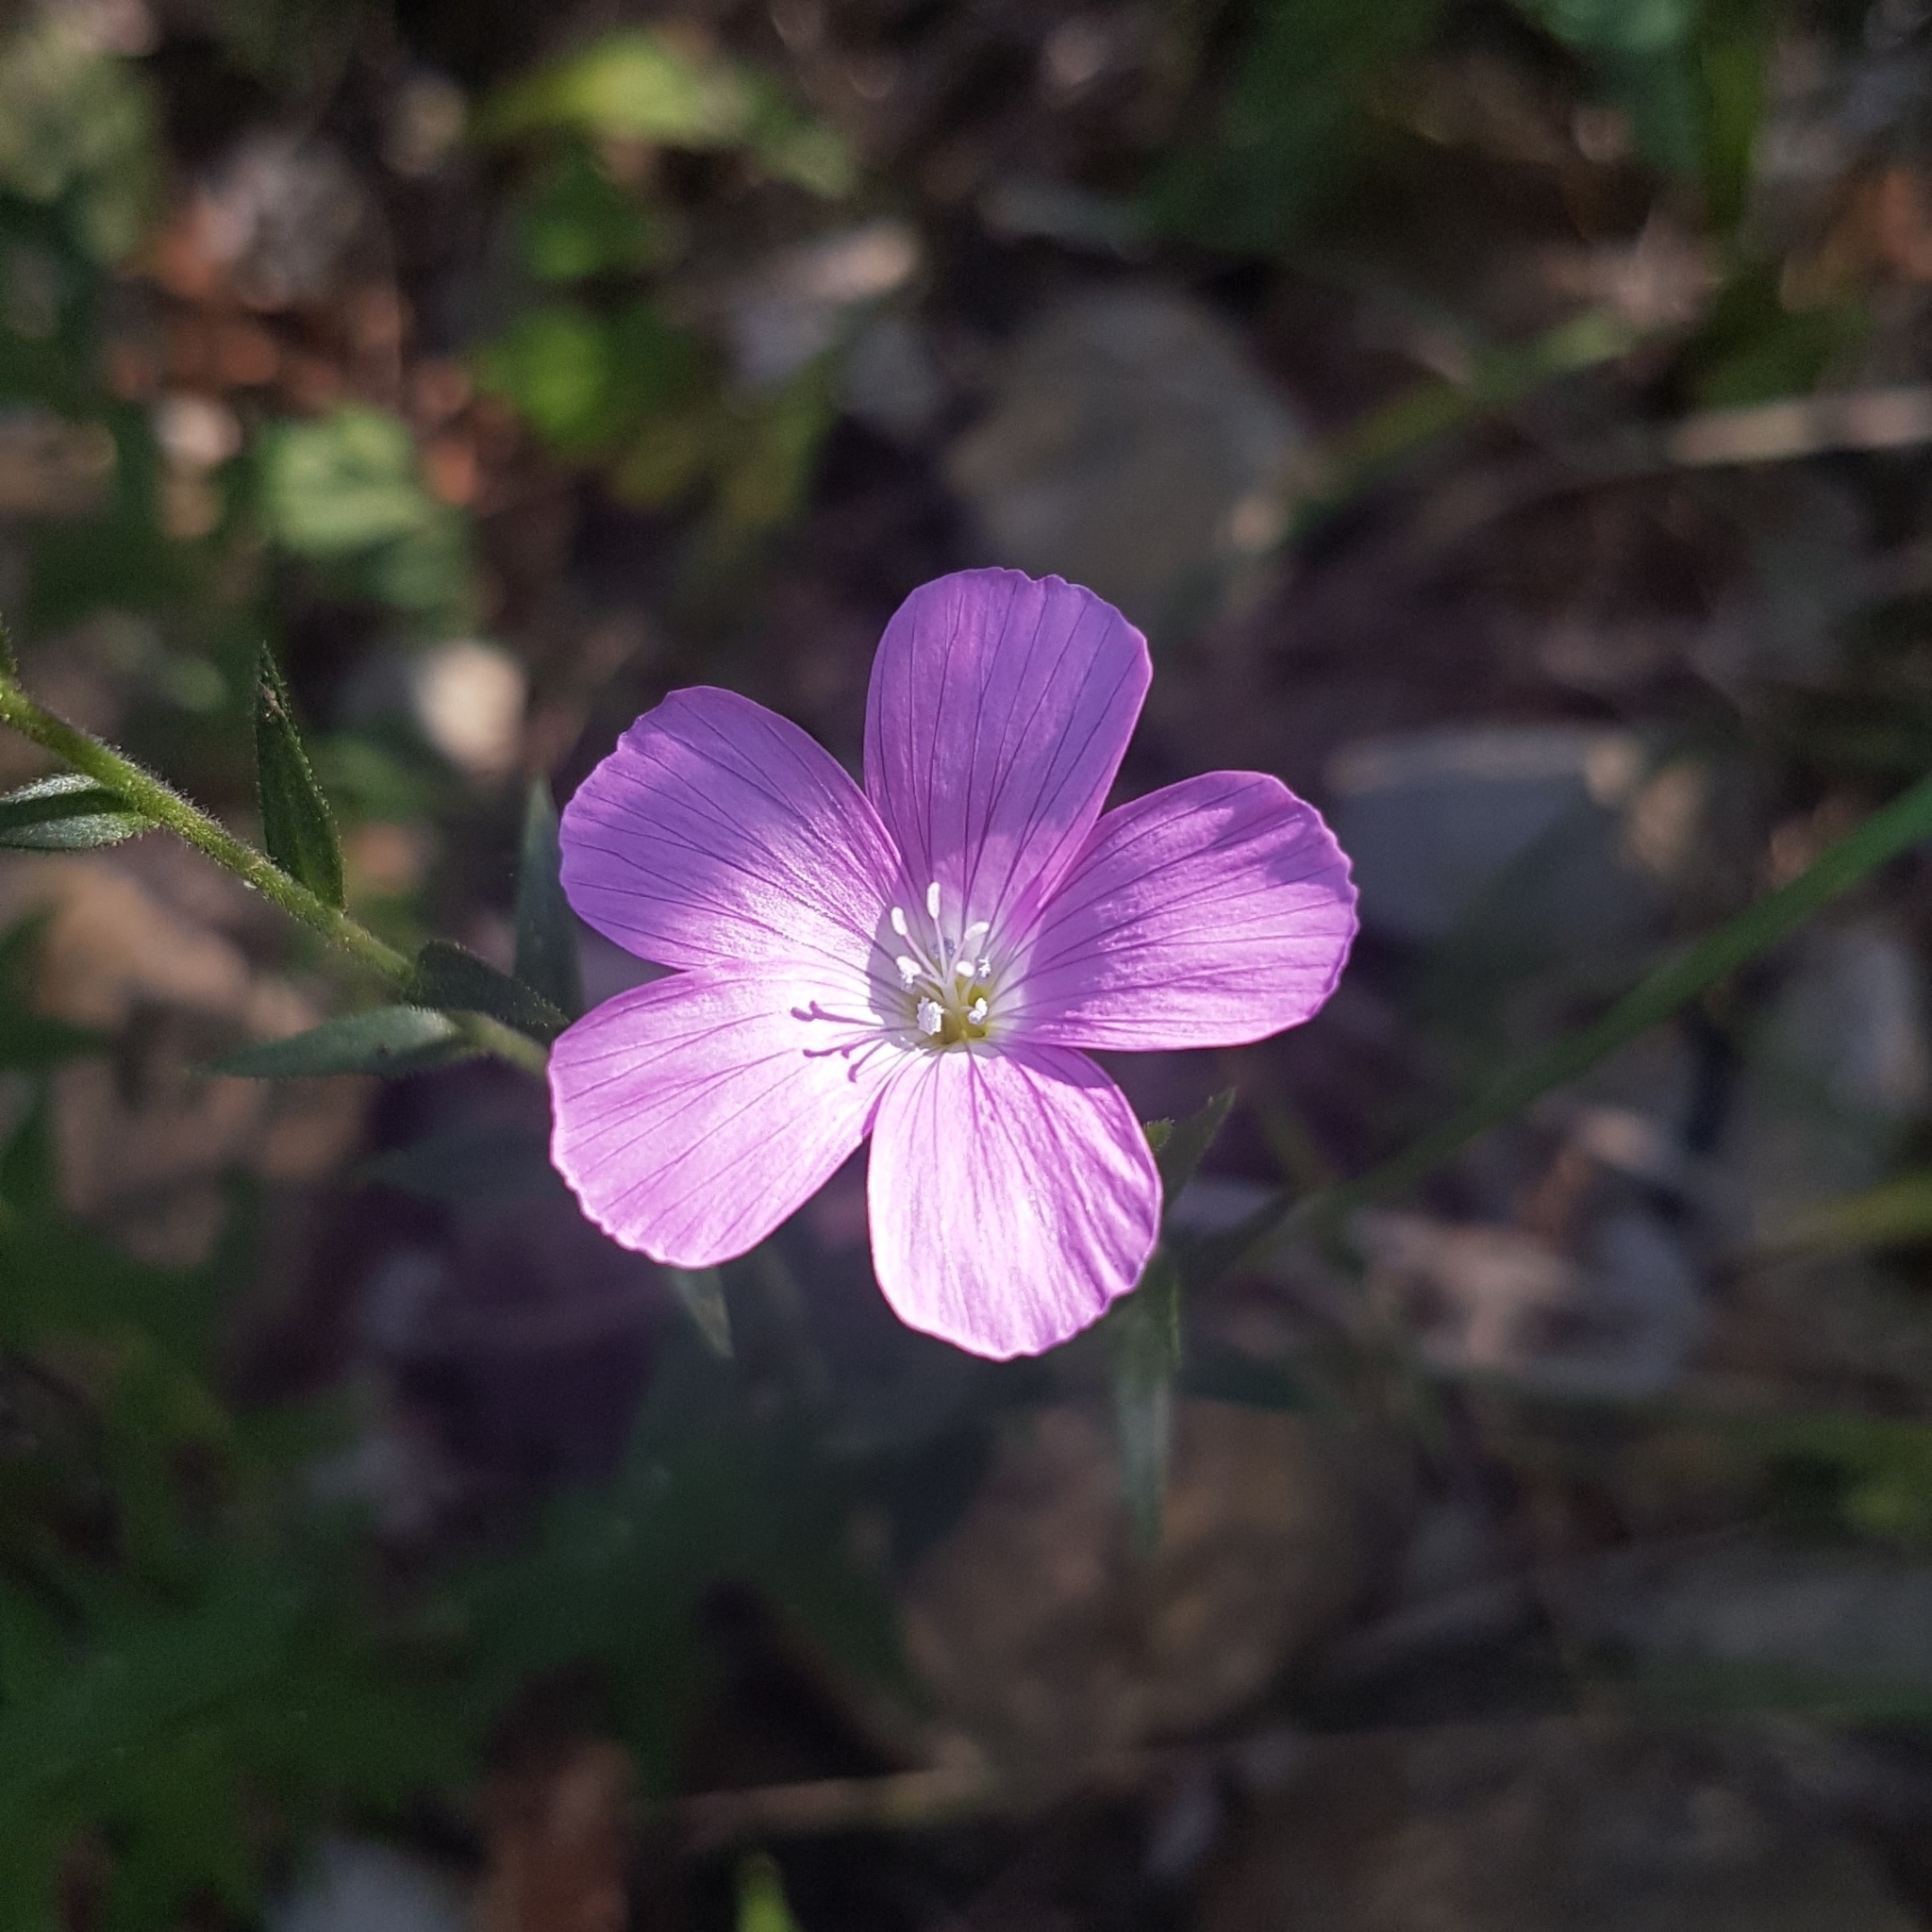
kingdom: Plantae
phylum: Tracheophyta
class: Magnoliopsida
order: Malpighiales
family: Linaceae
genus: Linum
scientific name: Linum viscosum
